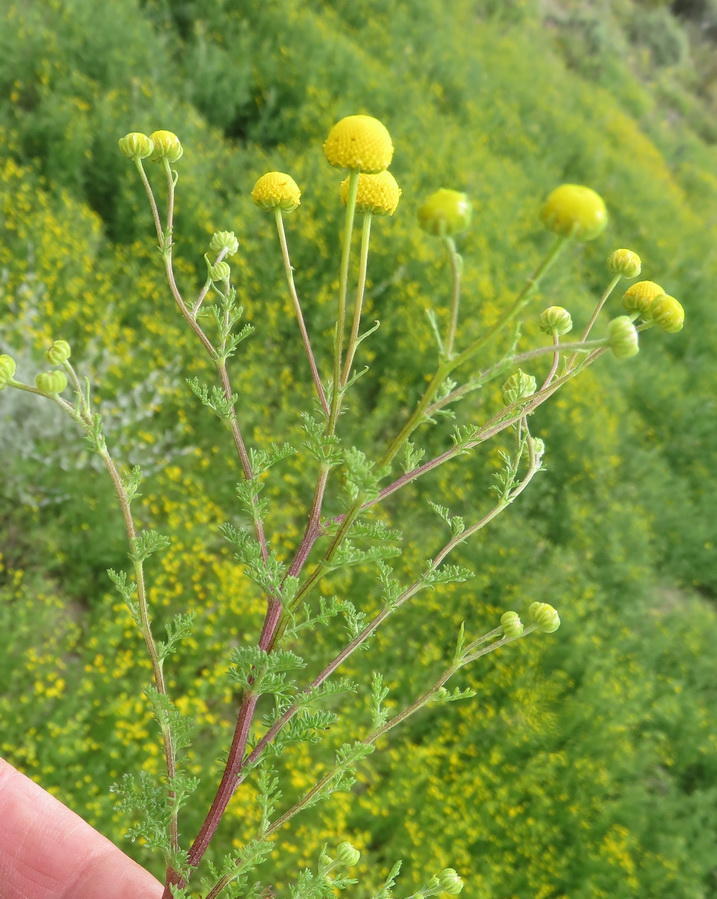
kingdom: Plantae
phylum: Tracheophyta
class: Magnoliopsida
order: Asterales
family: Asteraceae
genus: Oncosiphon
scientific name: Oncosiphon pilulifer
